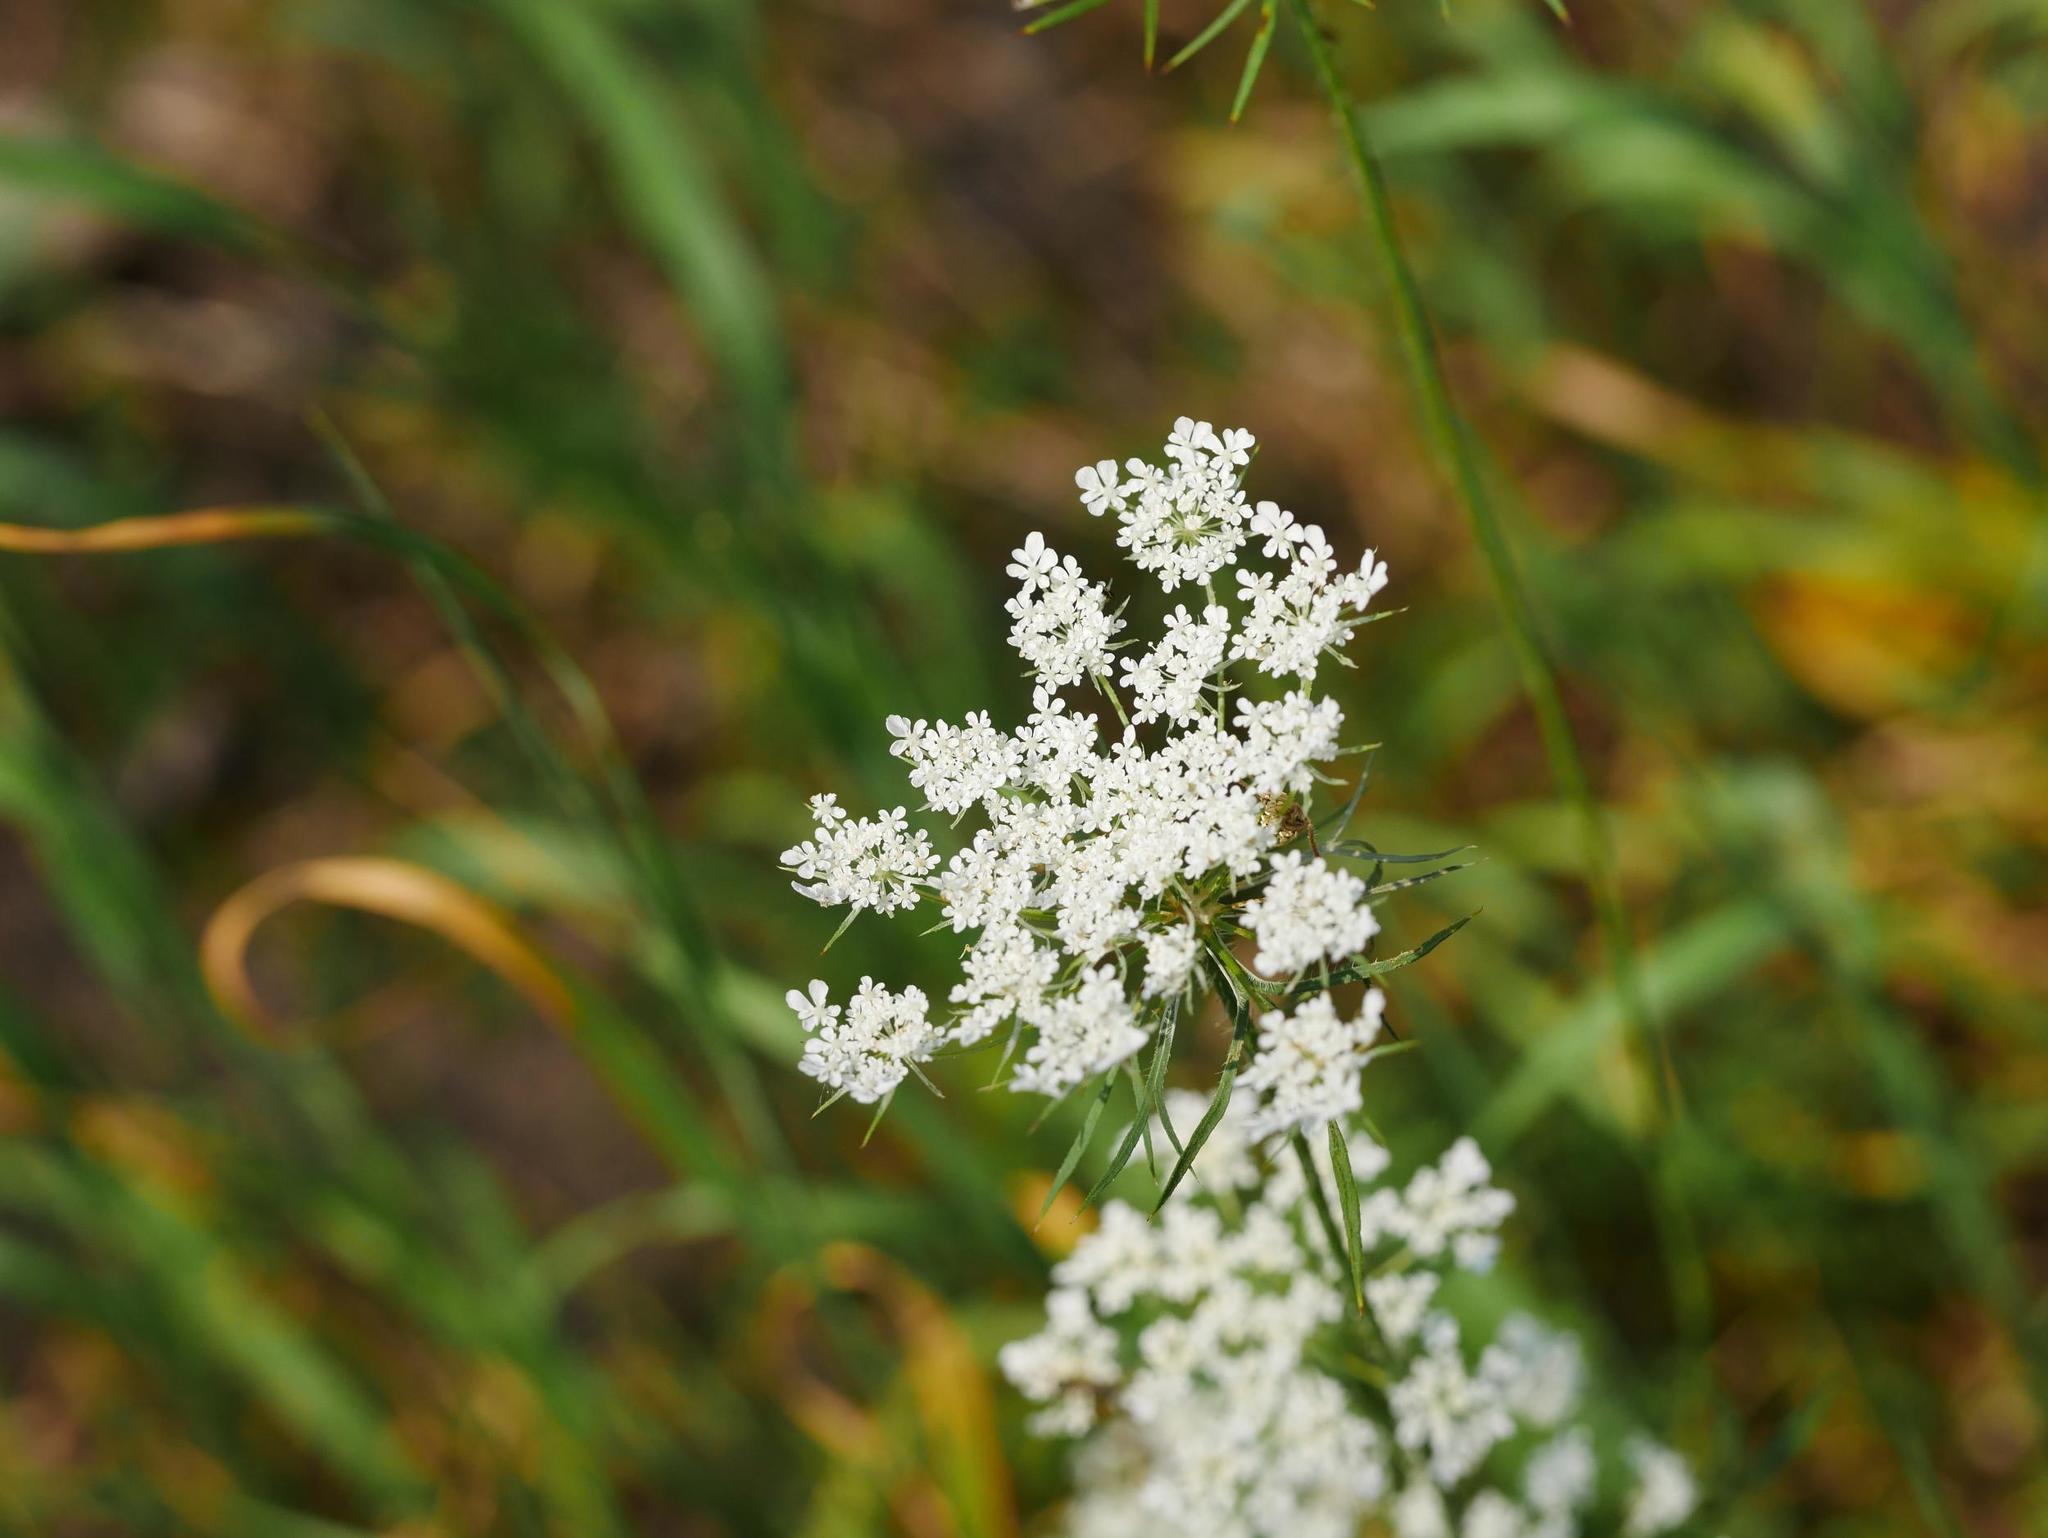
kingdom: Plantae
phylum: Tracheophyta
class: Magnoliopsida
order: Apiales
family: Apiaceae
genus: Daucus
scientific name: Daucus carota
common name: Wild carrot
